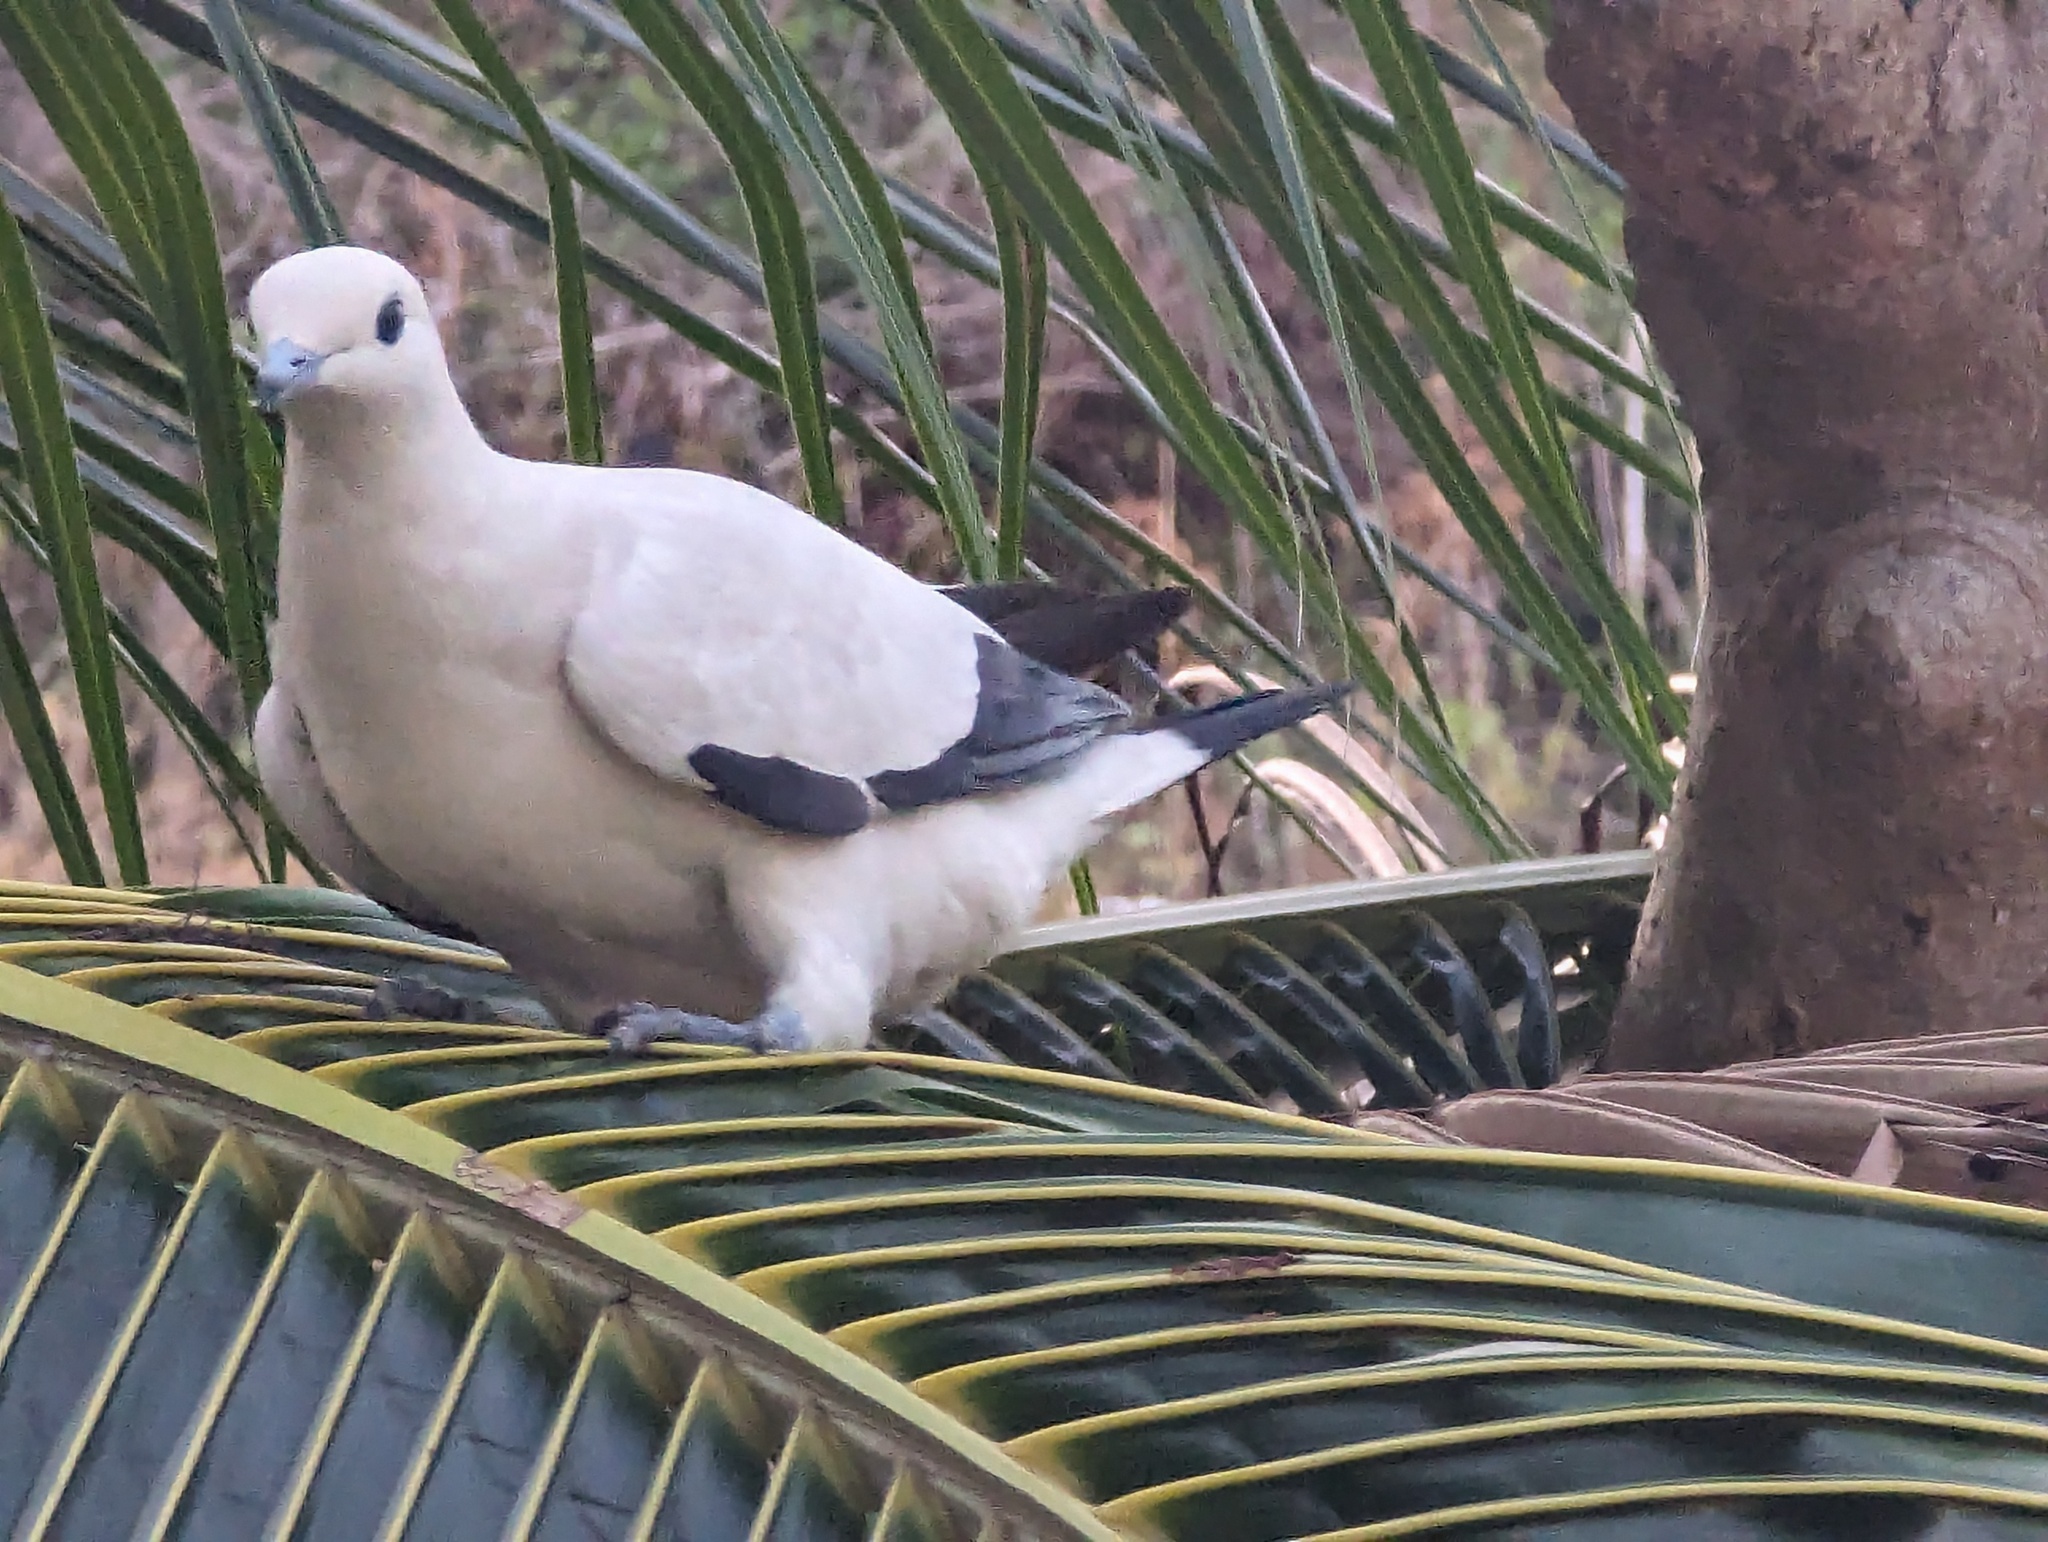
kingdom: Animalia
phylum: Chordata
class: Aves
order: Columbiformes
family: Columbidae
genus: Ducula
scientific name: Ducula bicolor
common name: Pied imperial pigeon
